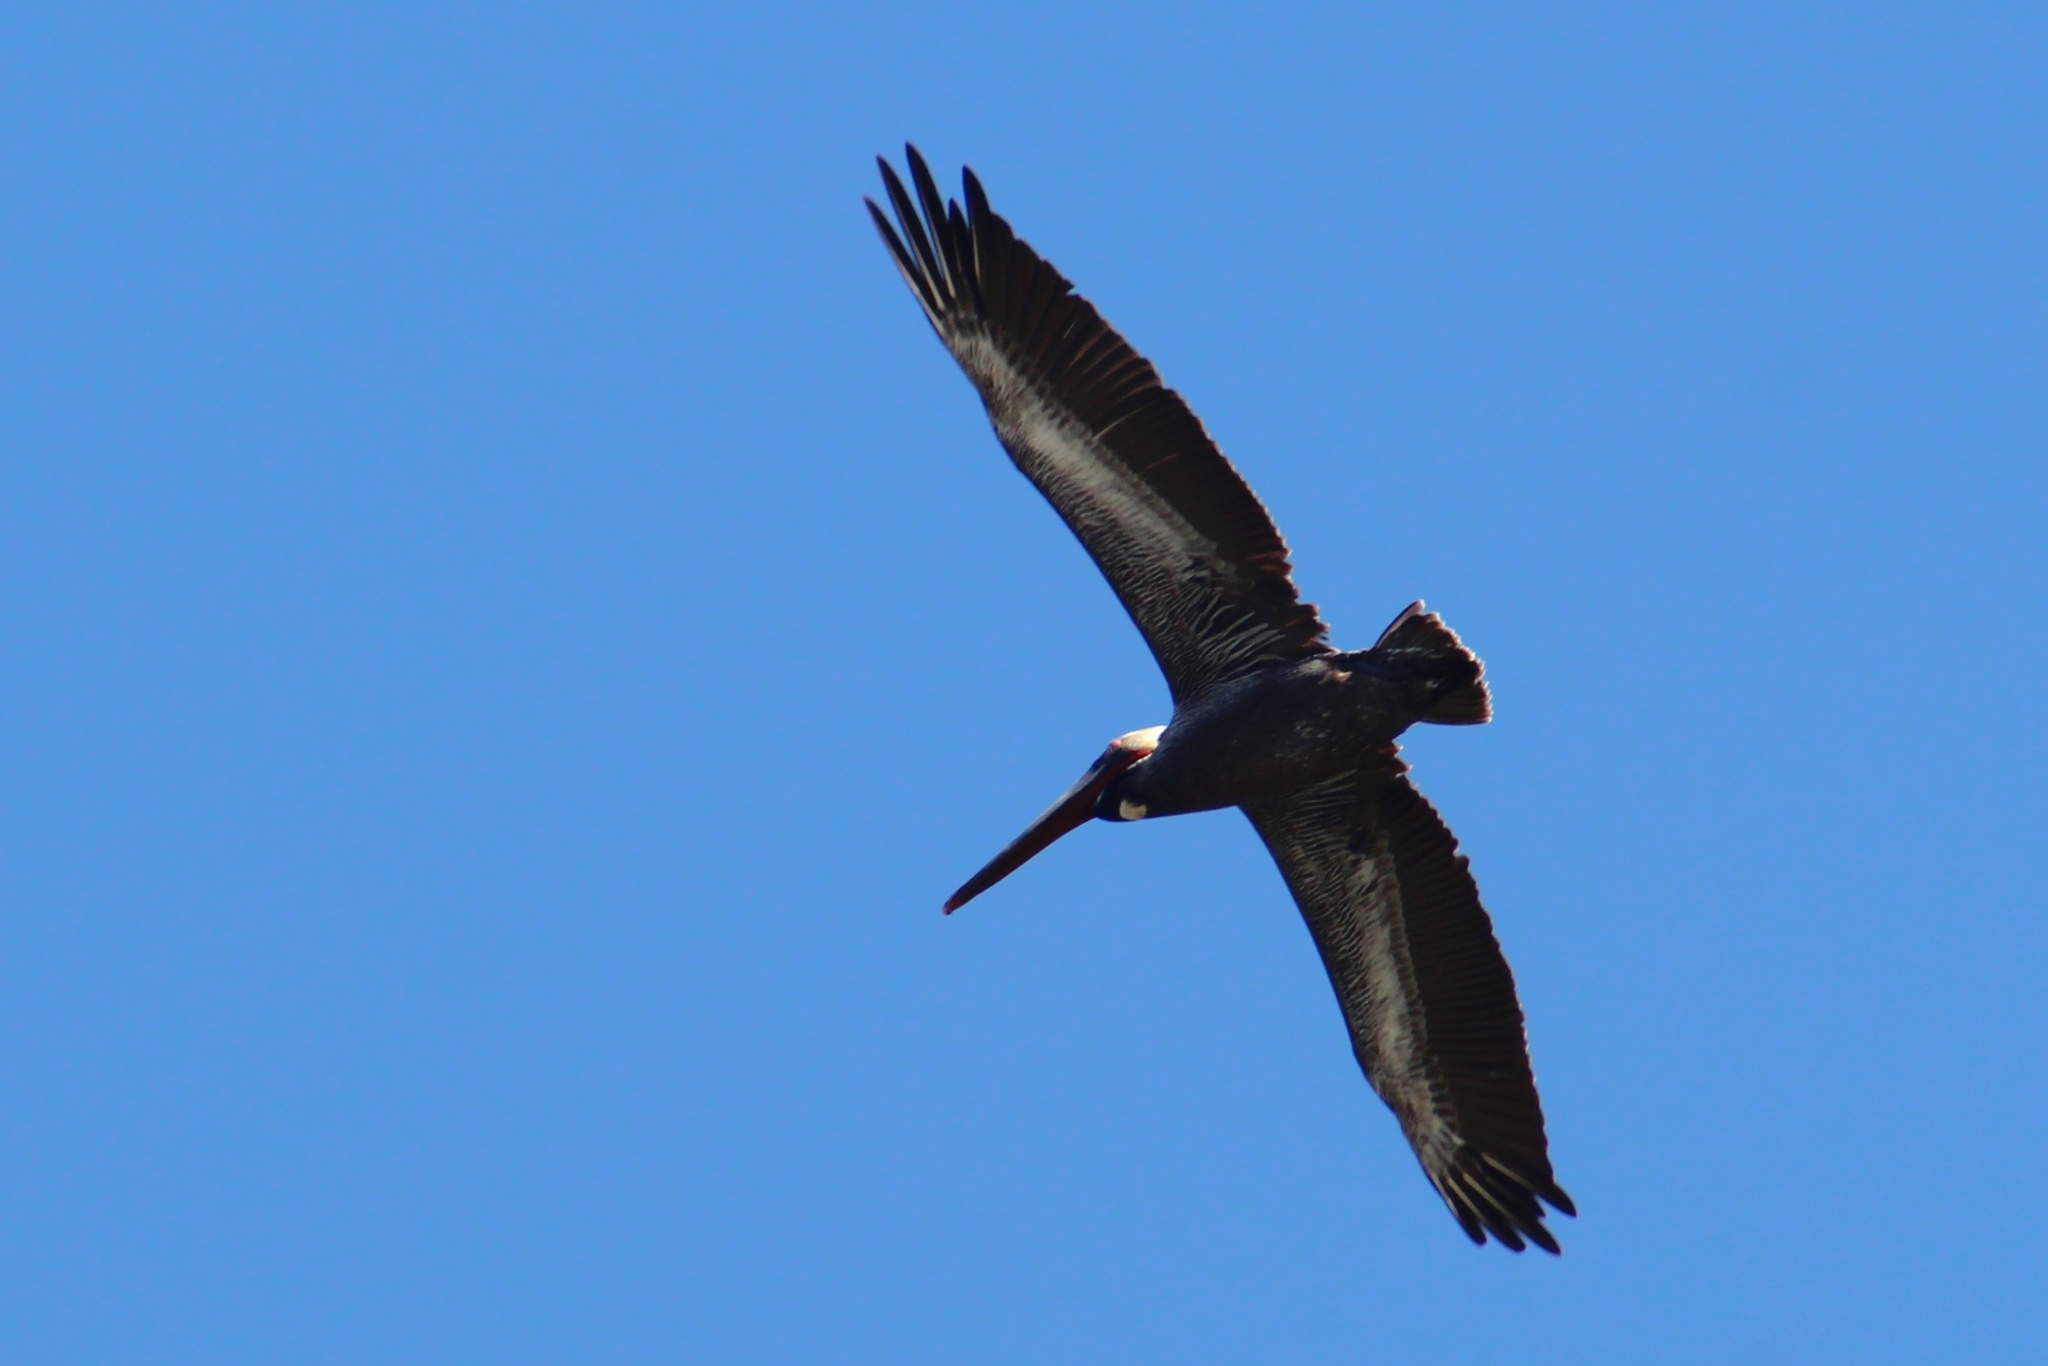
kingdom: Animalia
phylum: Chordata
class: Aves
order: Pelecaniformes
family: Pelecanidae
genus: Pelecanus
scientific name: Pelecanus occidentalis
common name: Brown pelican
